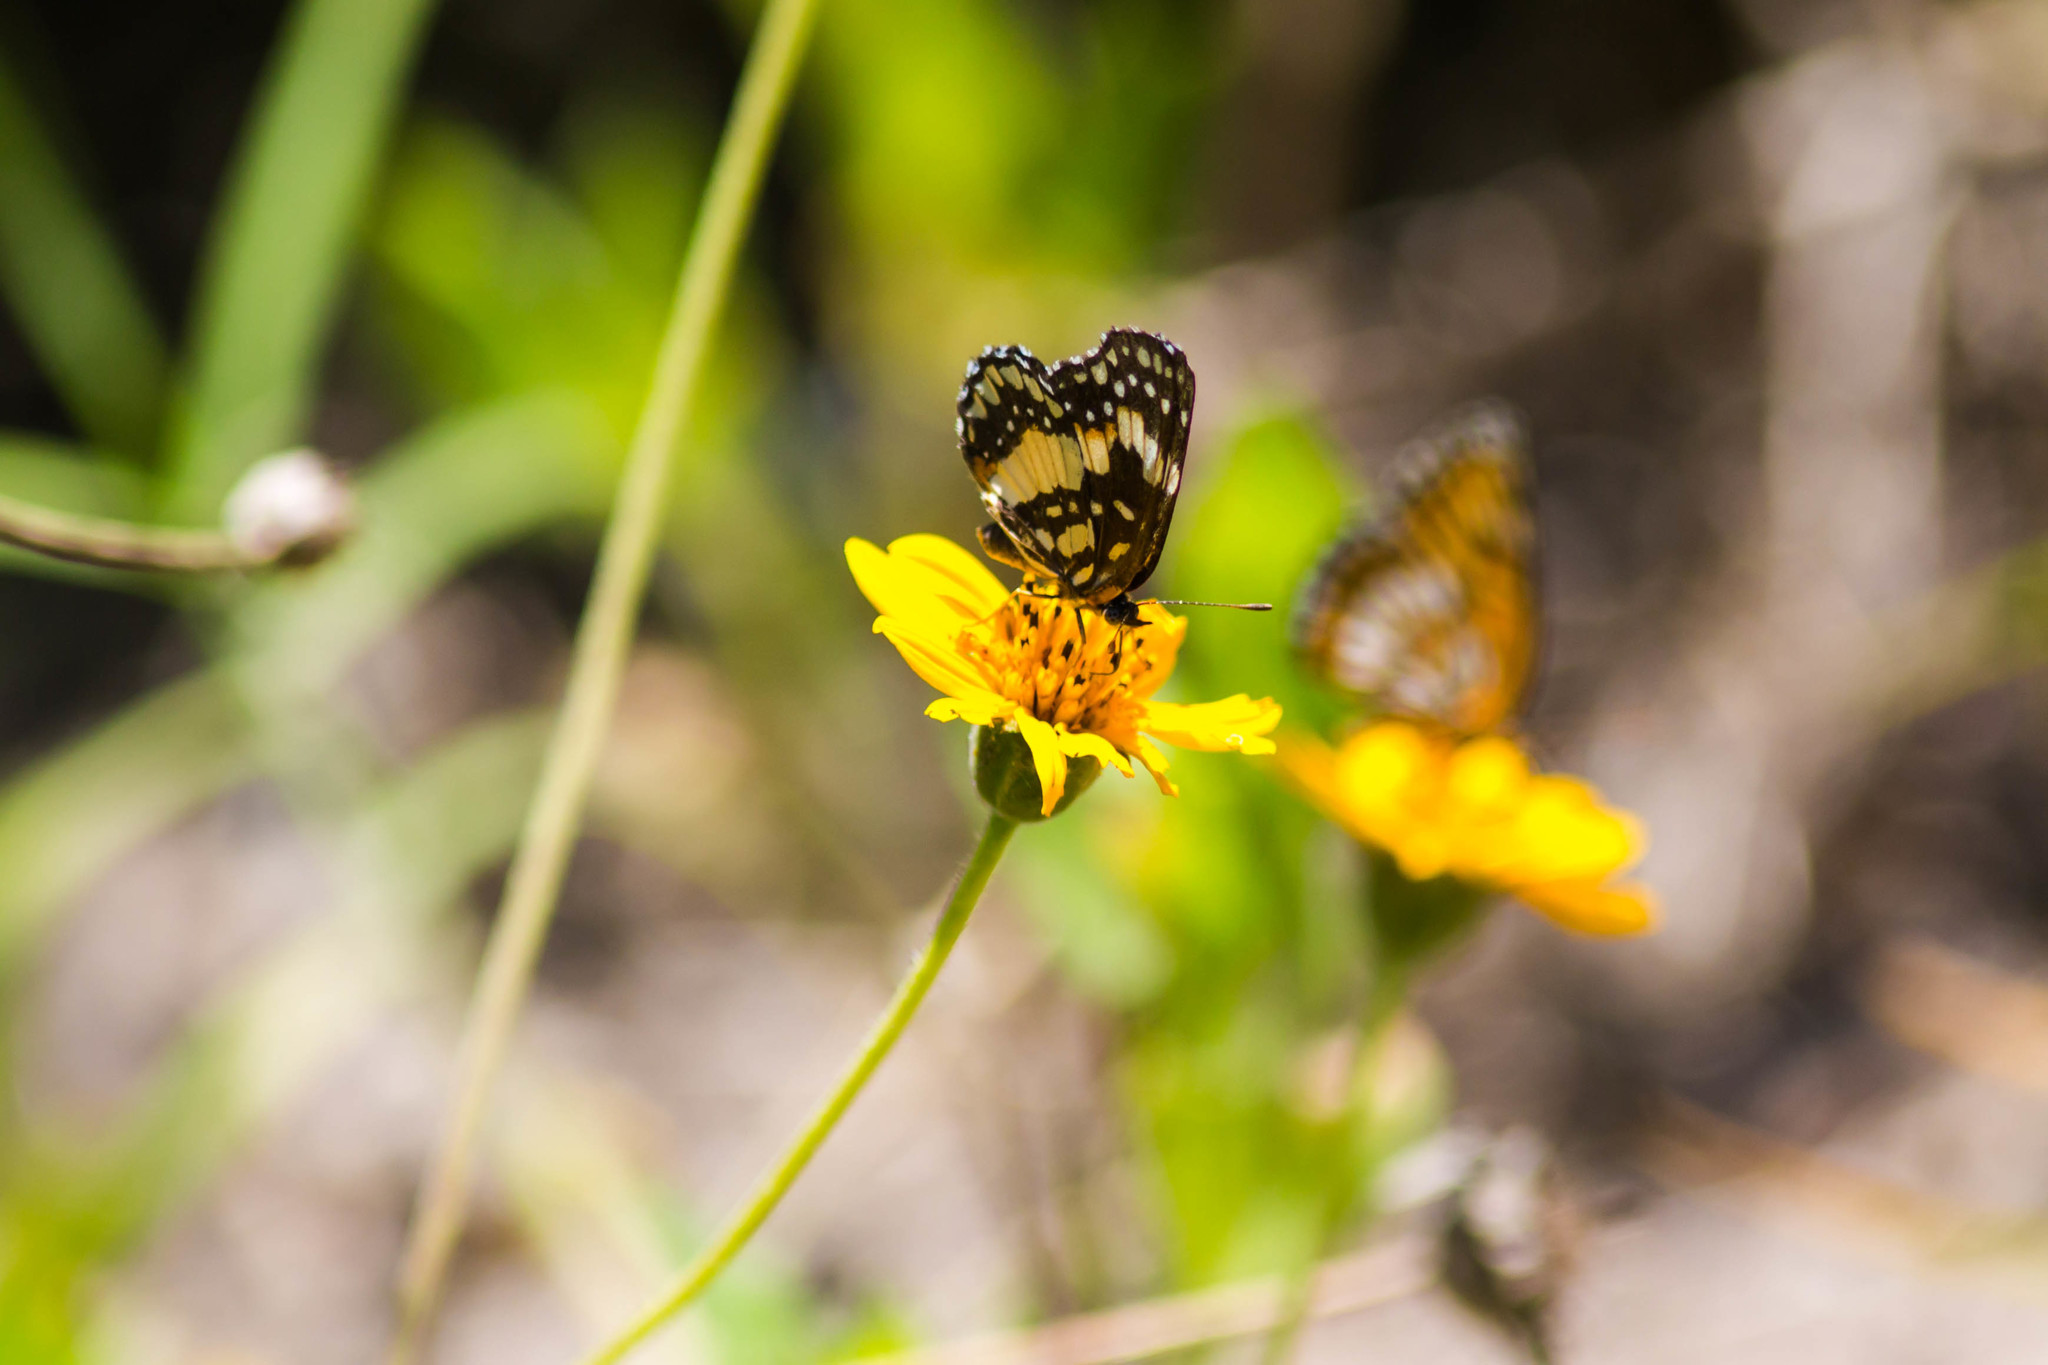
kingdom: Animalia
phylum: Arthropoda
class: Insecta
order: Lepidoptera
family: Nymphalidae
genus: Chlosyne
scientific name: Chlosyne lacinia
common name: Bordered patch
